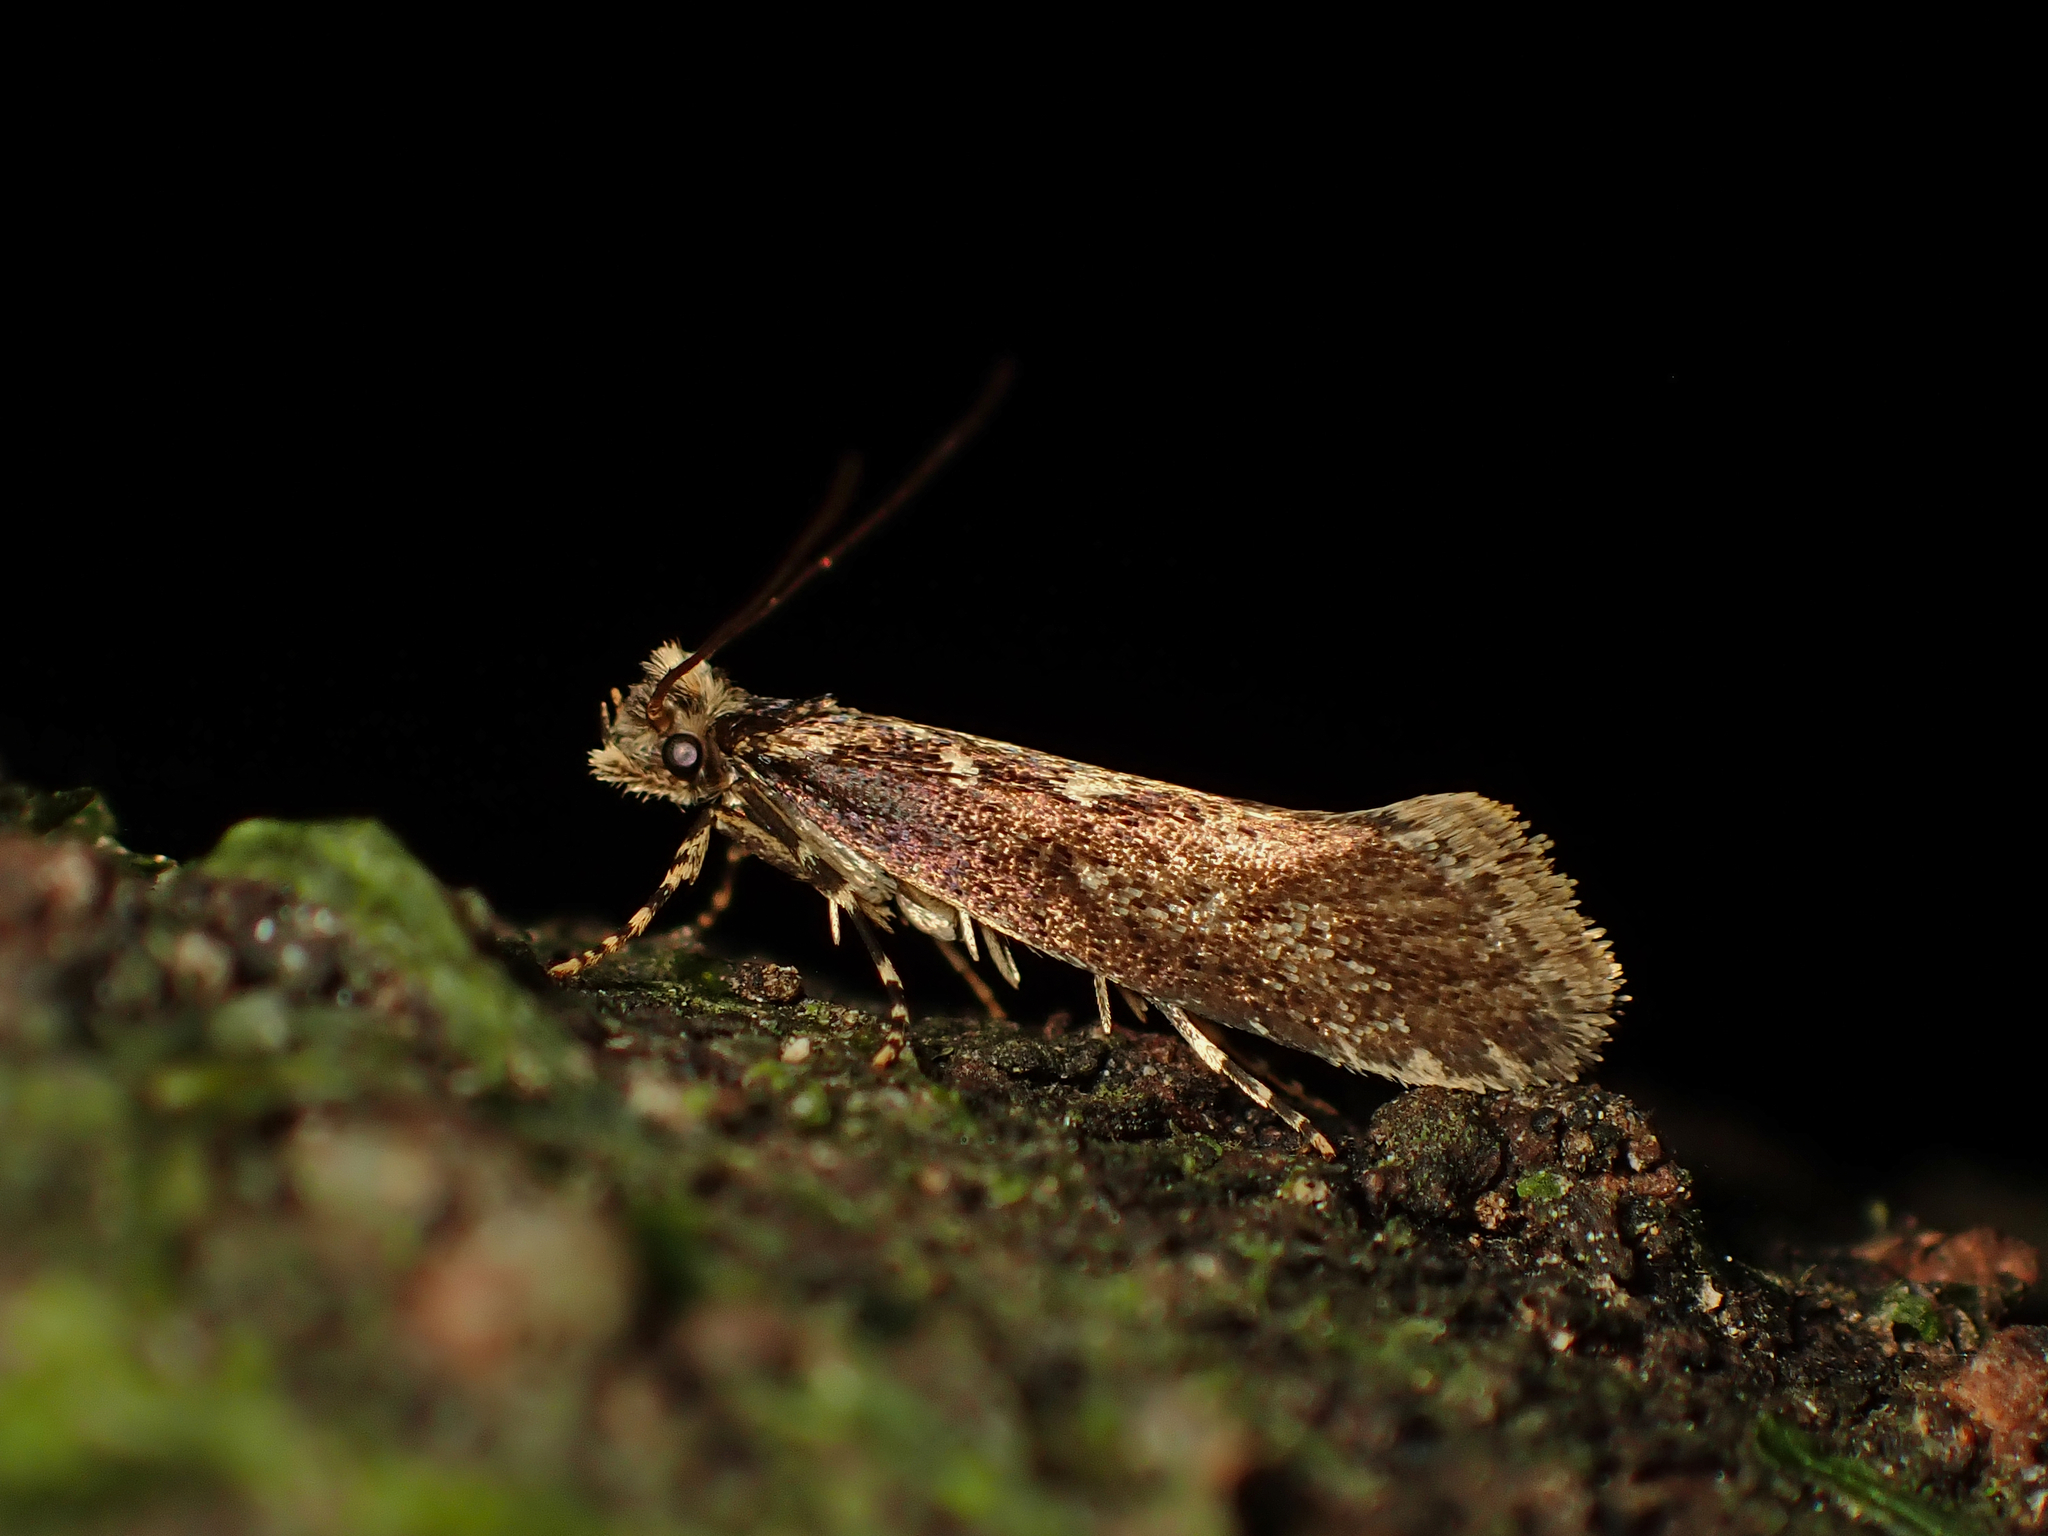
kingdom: Animalia
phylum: Arthropoda
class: Insecta
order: Lepidoptera
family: Tineidae
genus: Proterodesma
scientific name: Proterodesma byrsopola
